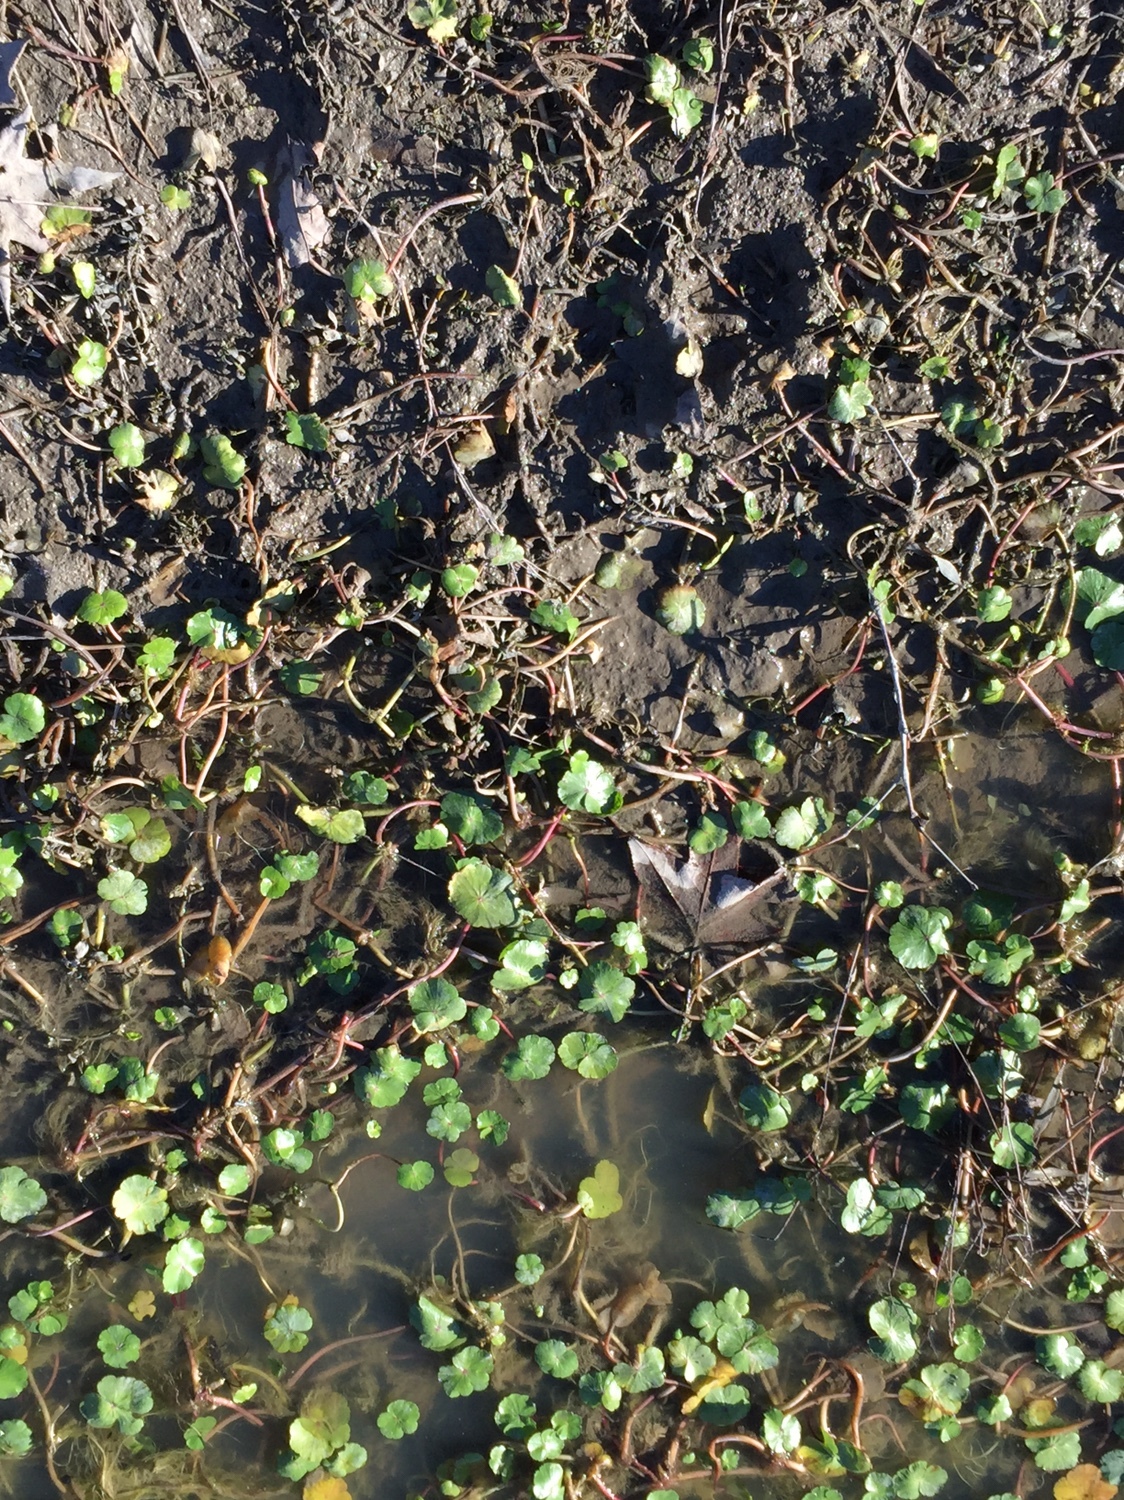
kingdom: Plantae
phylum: Tracheophyta
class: Magnoliopsida
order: Apiales
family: Araliaceae
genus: Hydrocotyle
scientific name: Hydrocotyle ranunculoides
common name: Floating pennywort
